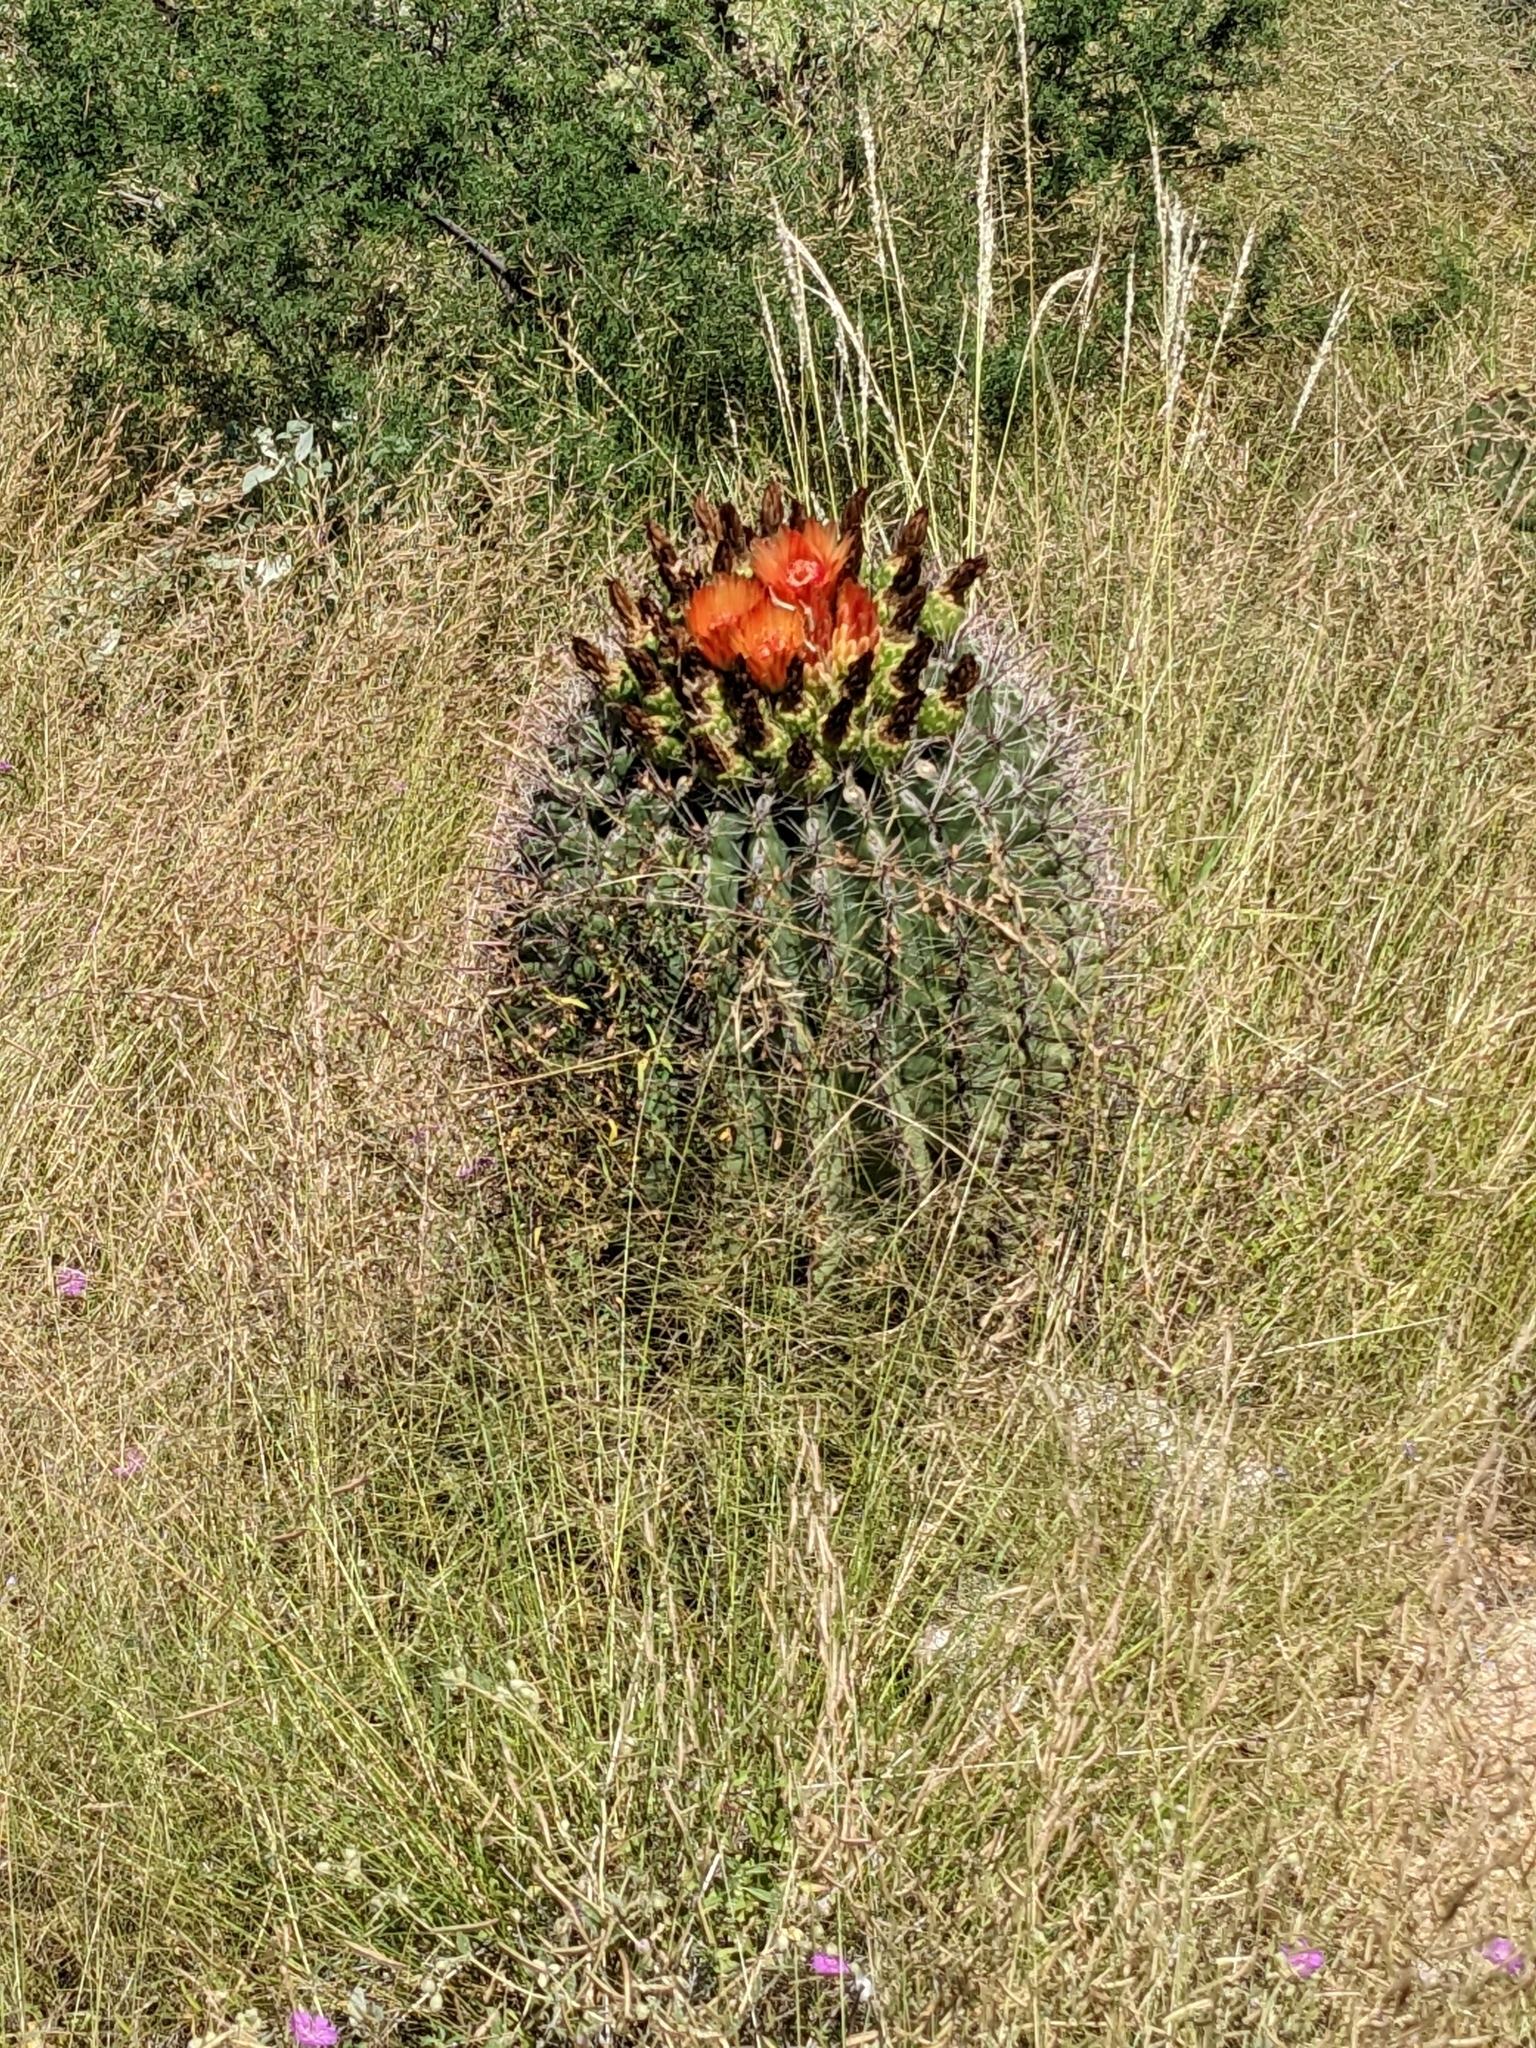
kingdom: Plantae
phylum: Tracheophyta
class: Magnoliopsida
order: Caryophyllales
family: Cactaceae
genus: Ferocactus
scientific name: Ferocactus wislizeni
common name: Candy barrel cactus
